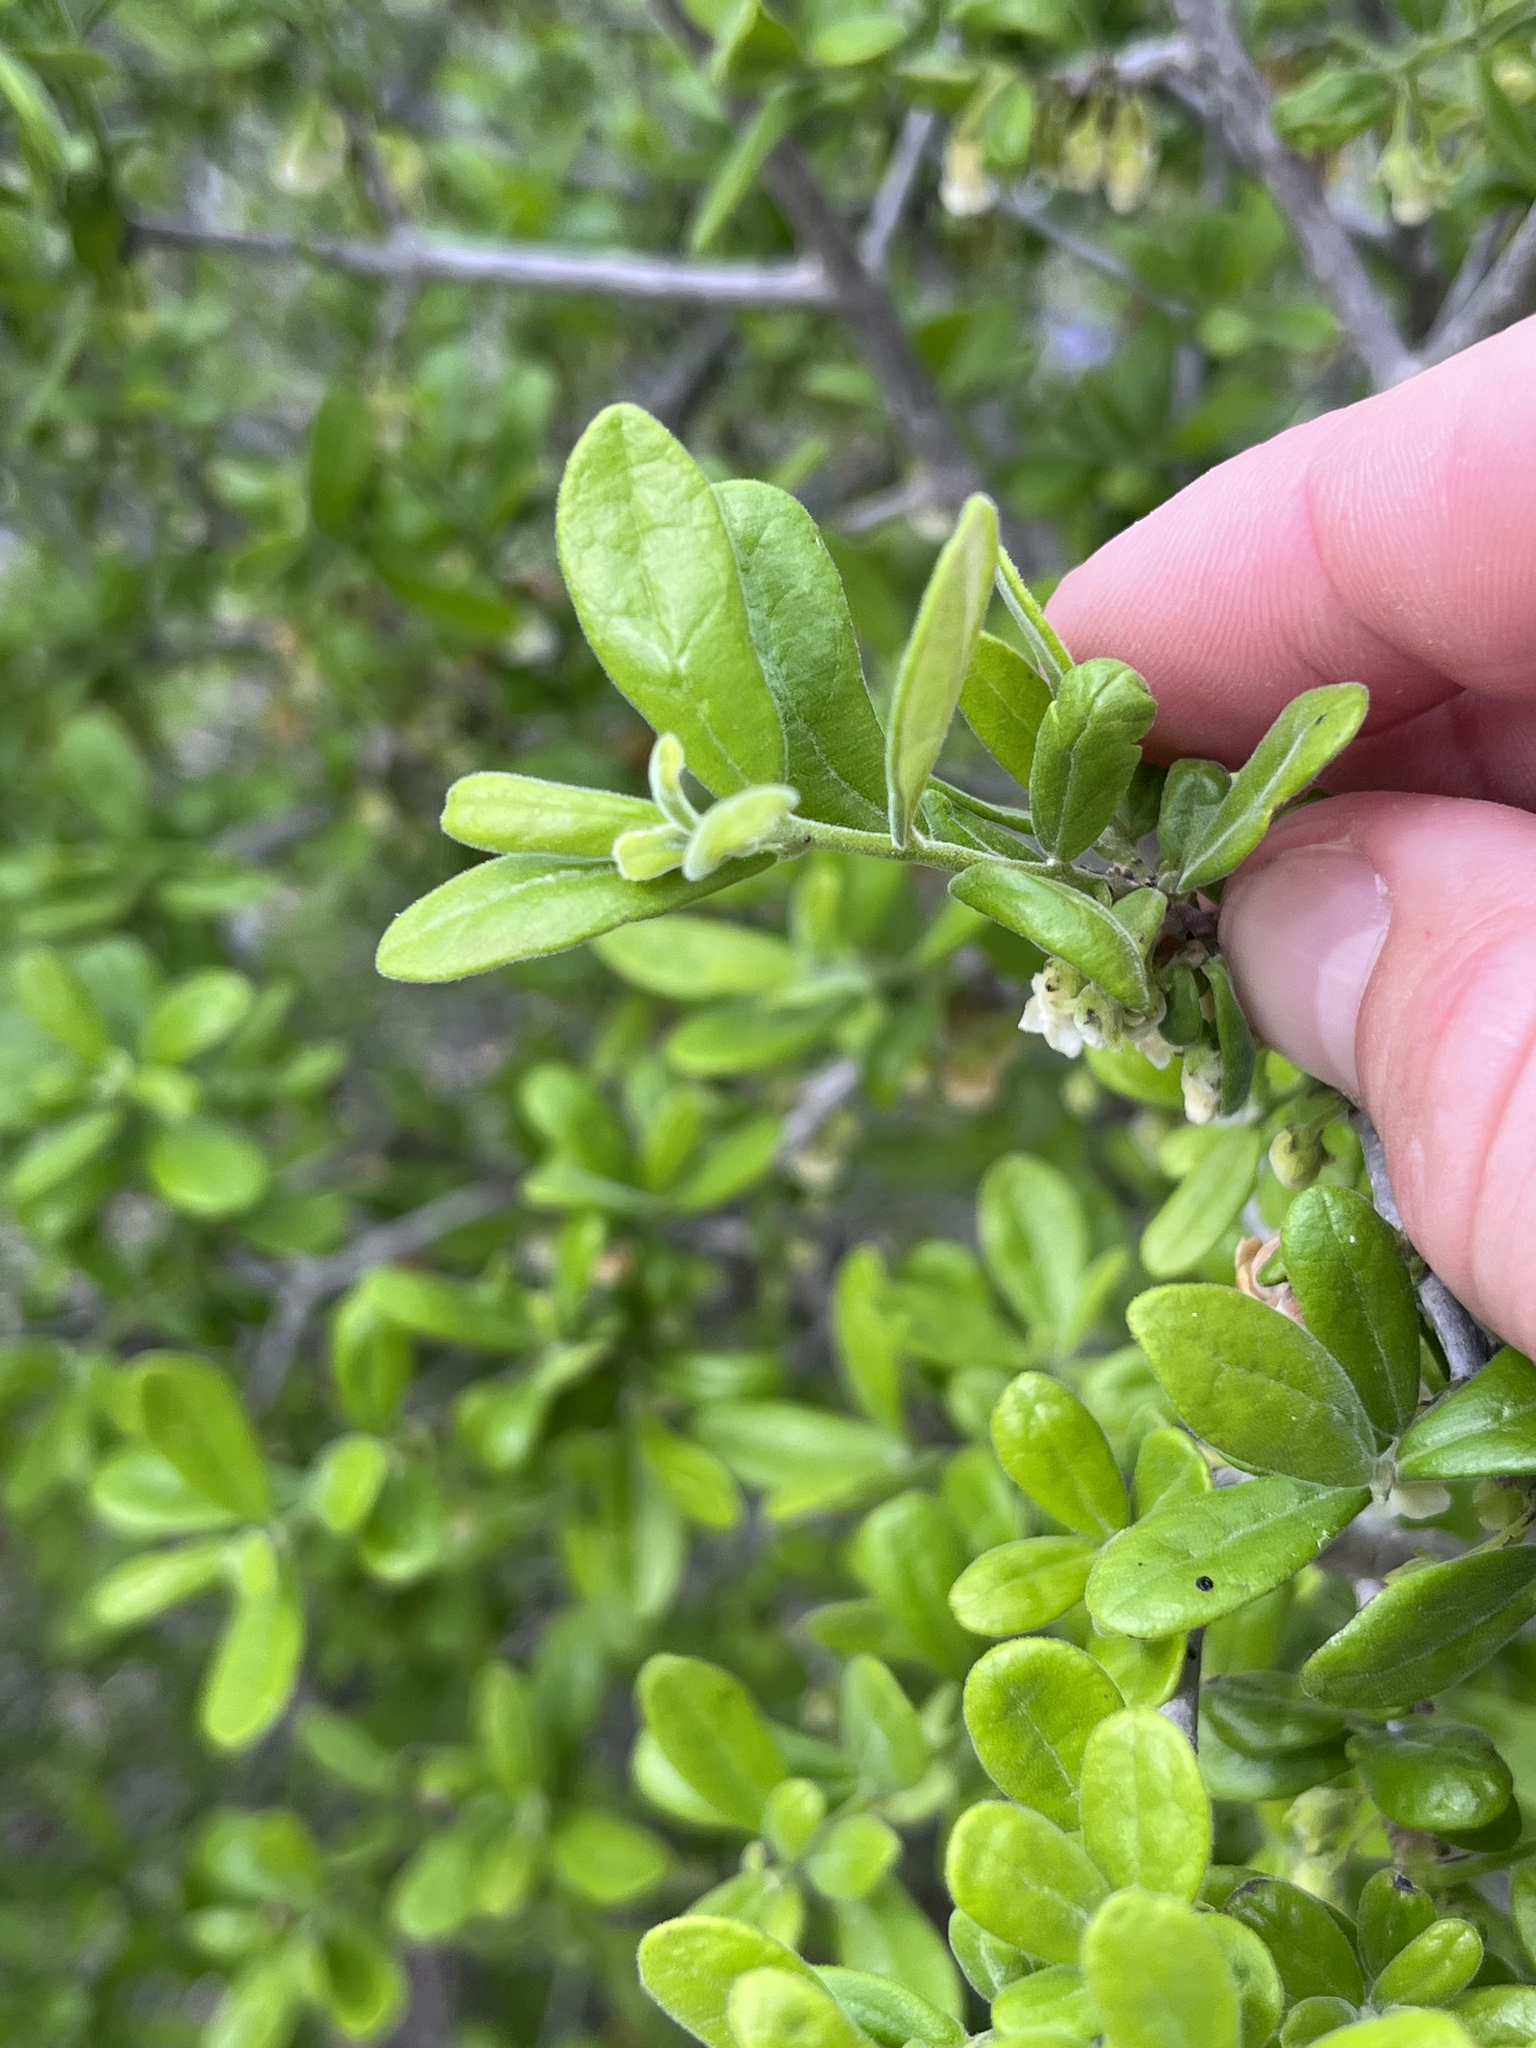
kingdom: Plantae
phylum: Tracheophyta
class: Magnoliopsida
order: Ericales
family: Ebenaceae
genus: Diospyros
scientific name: Diospyros texana
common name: Texas persimmon
